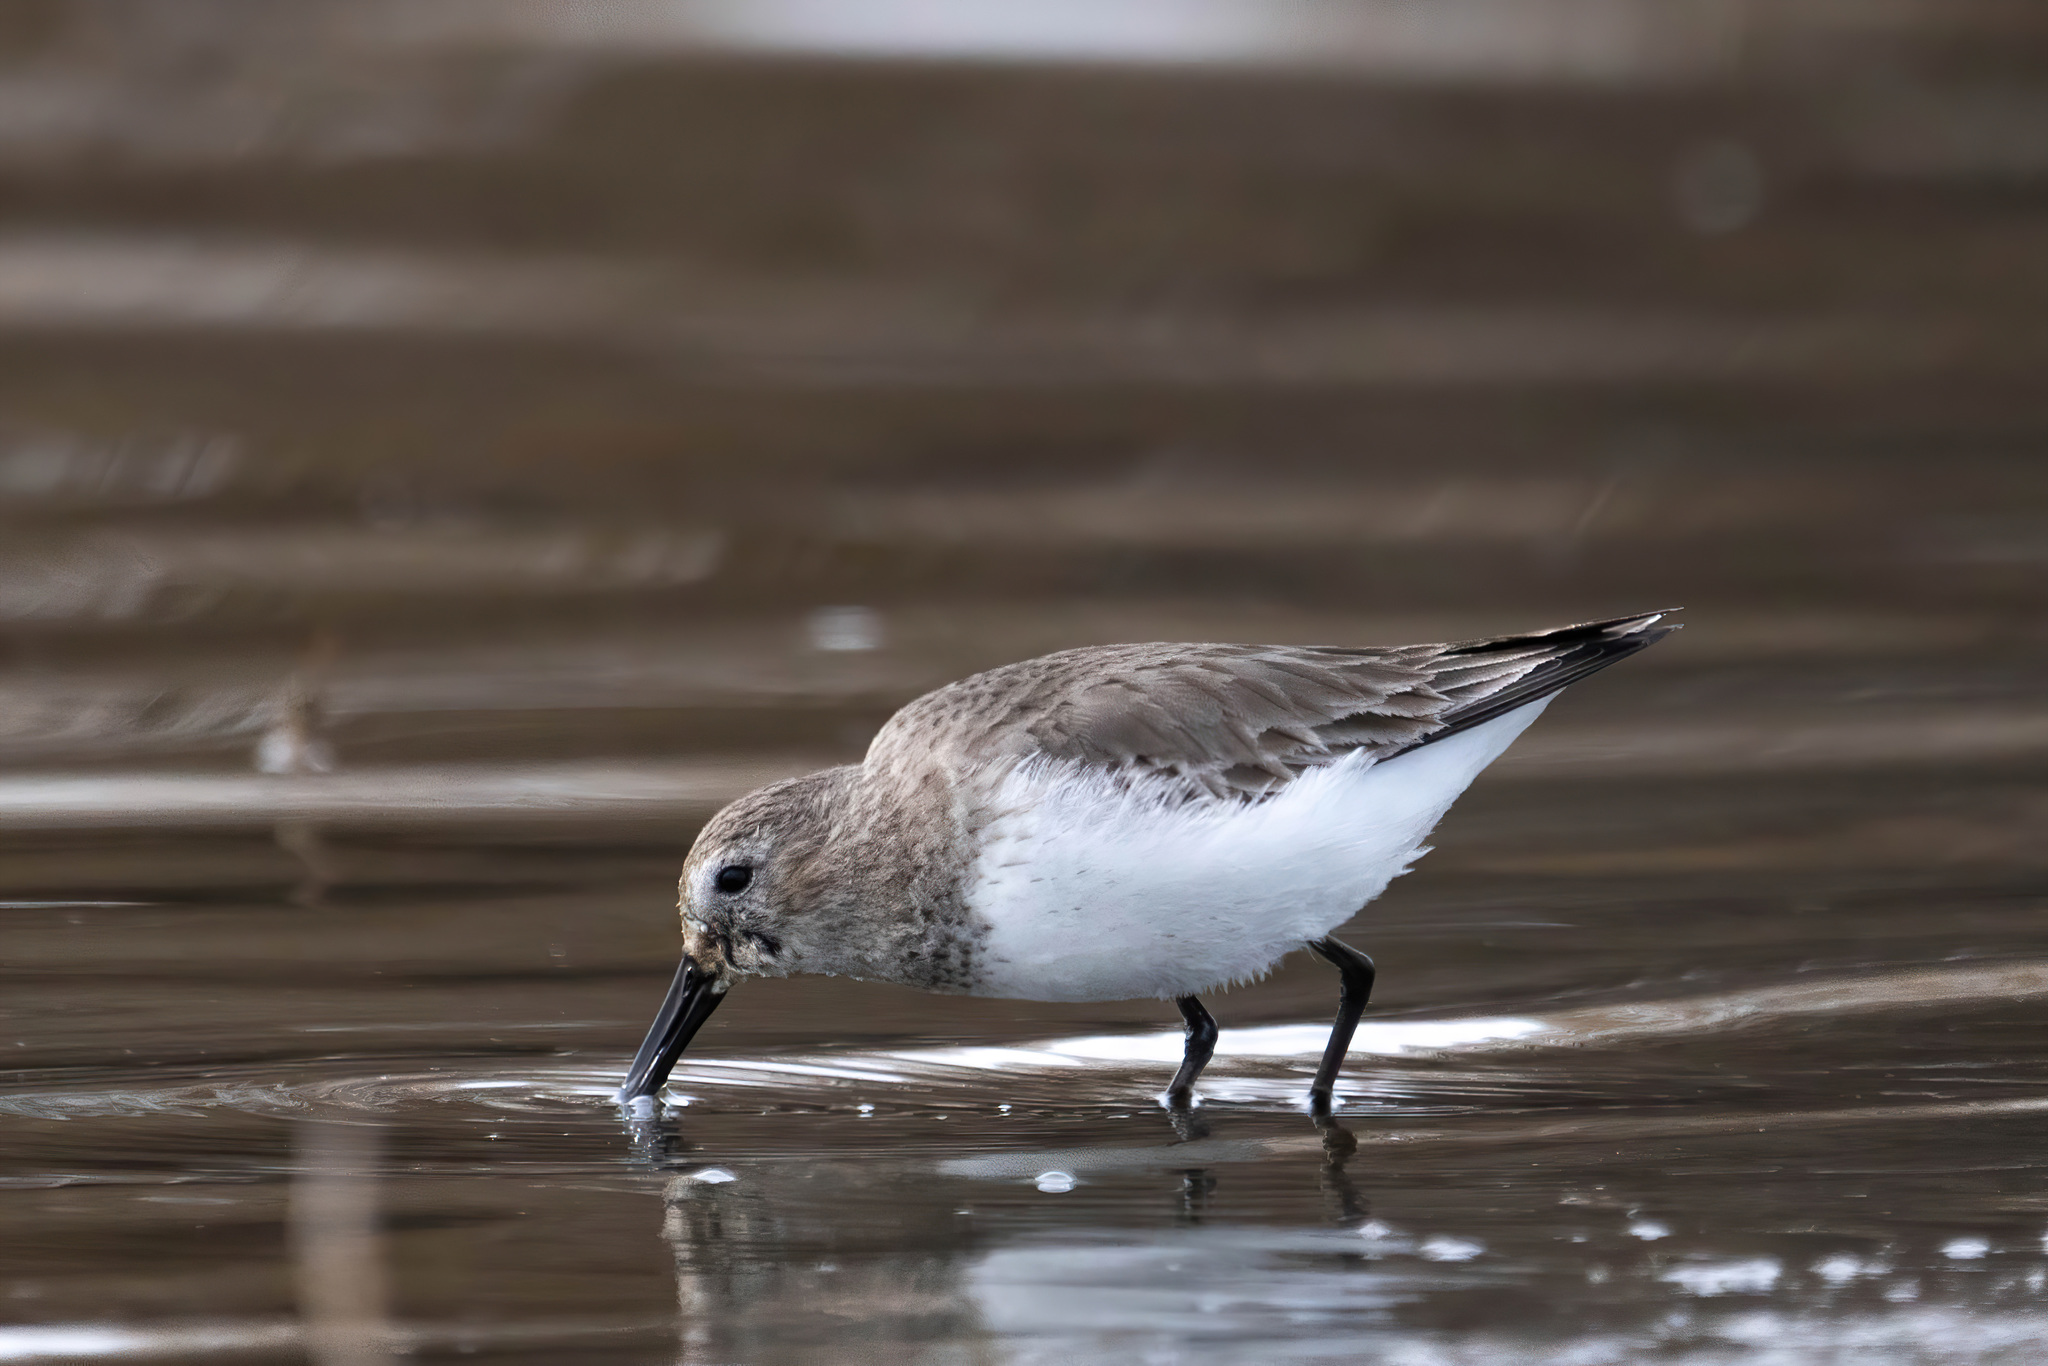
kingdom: Animalia
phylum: Chordata
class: Aves
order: Charadriiformes
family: Scolopacidae
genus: Calidris
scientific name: Calidris alpina
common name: Dunlin
